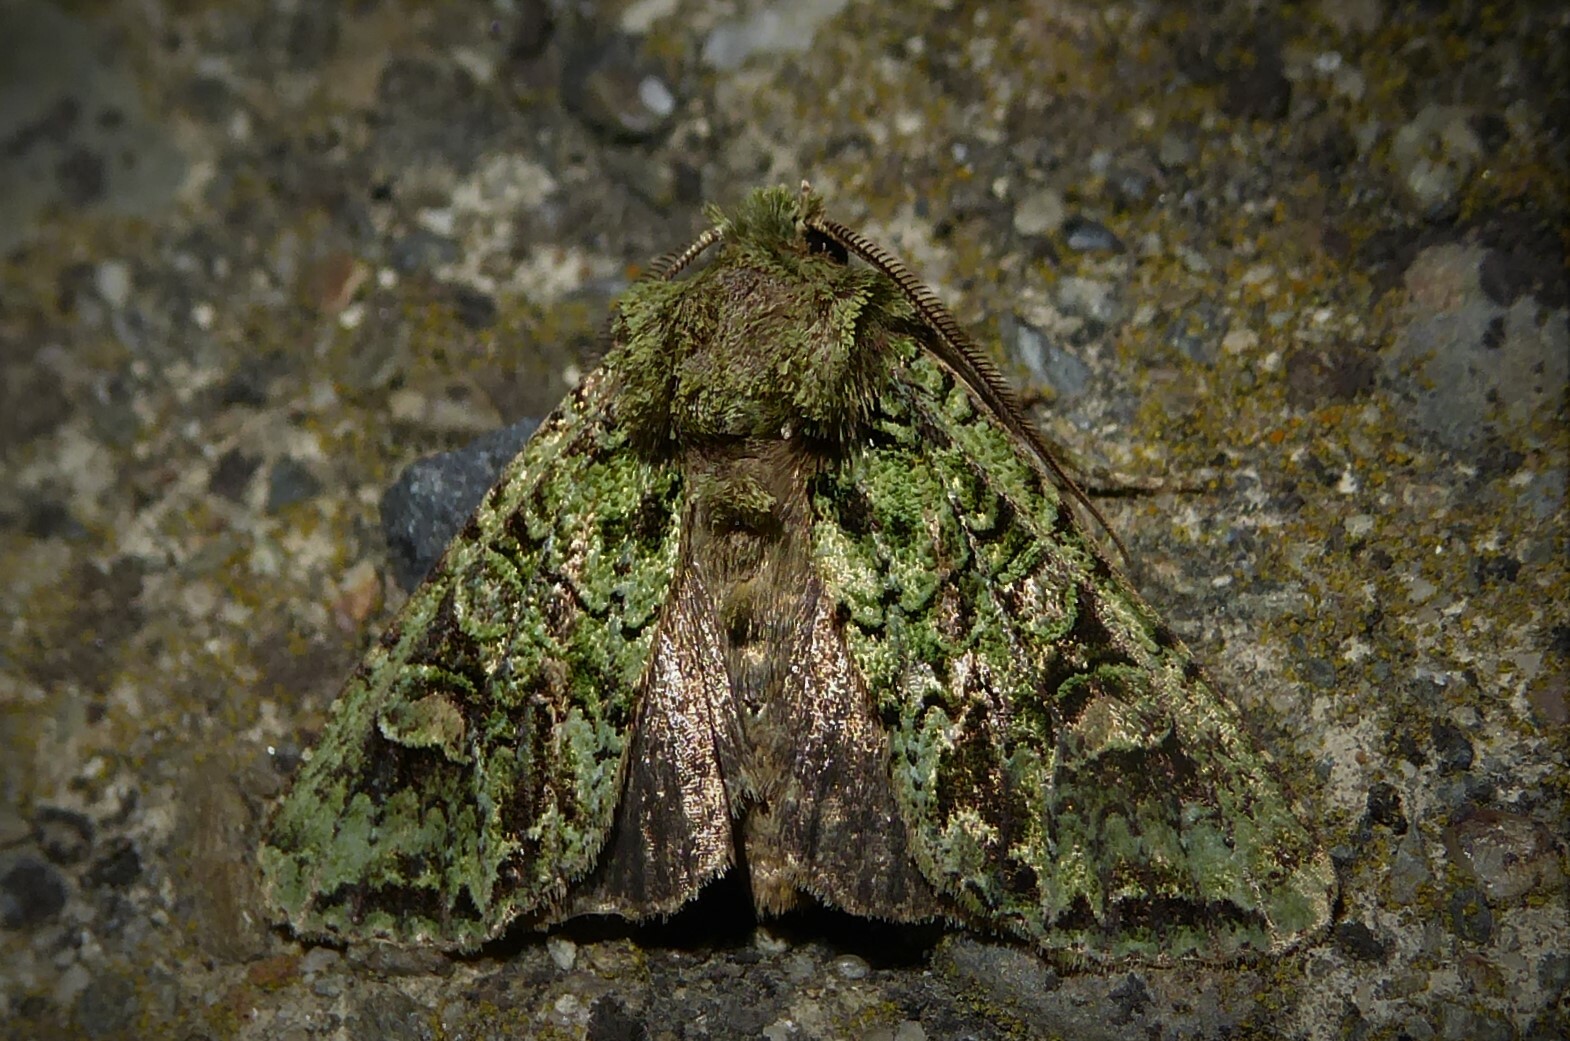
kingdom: Animalia
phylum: Arthropoda
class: Insecta
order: Lepidoptera
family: Noctuidae
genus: Ichneutica
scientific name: Ichneutica
